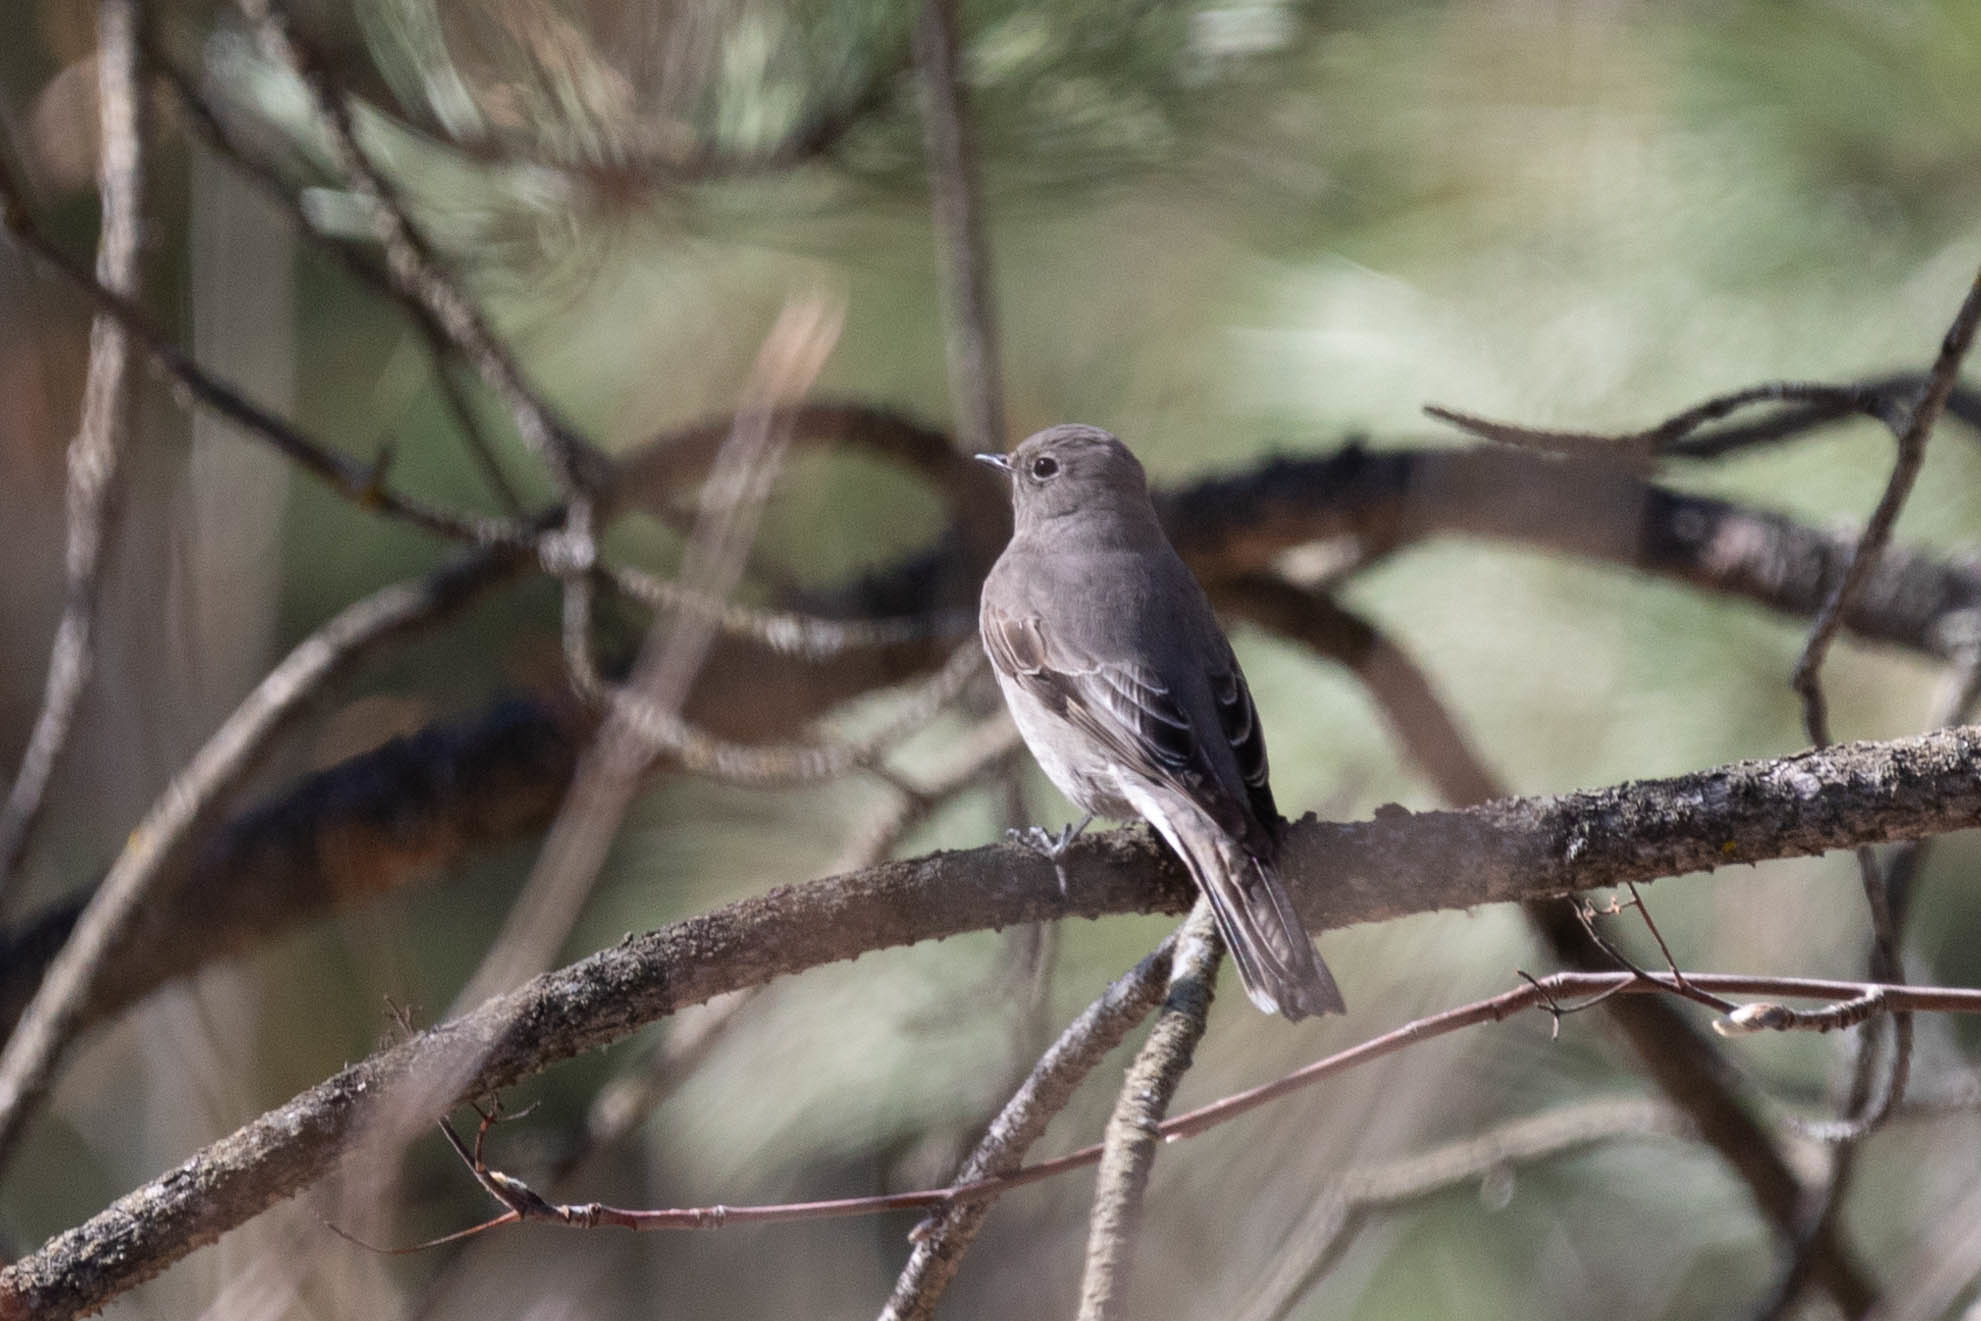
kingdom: Animalia
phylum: Chordata
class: Aves
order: Passeriformes
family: Turdidae
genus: Myadestes
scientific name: Myadestes townsendi
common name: Townsend's solitaire
